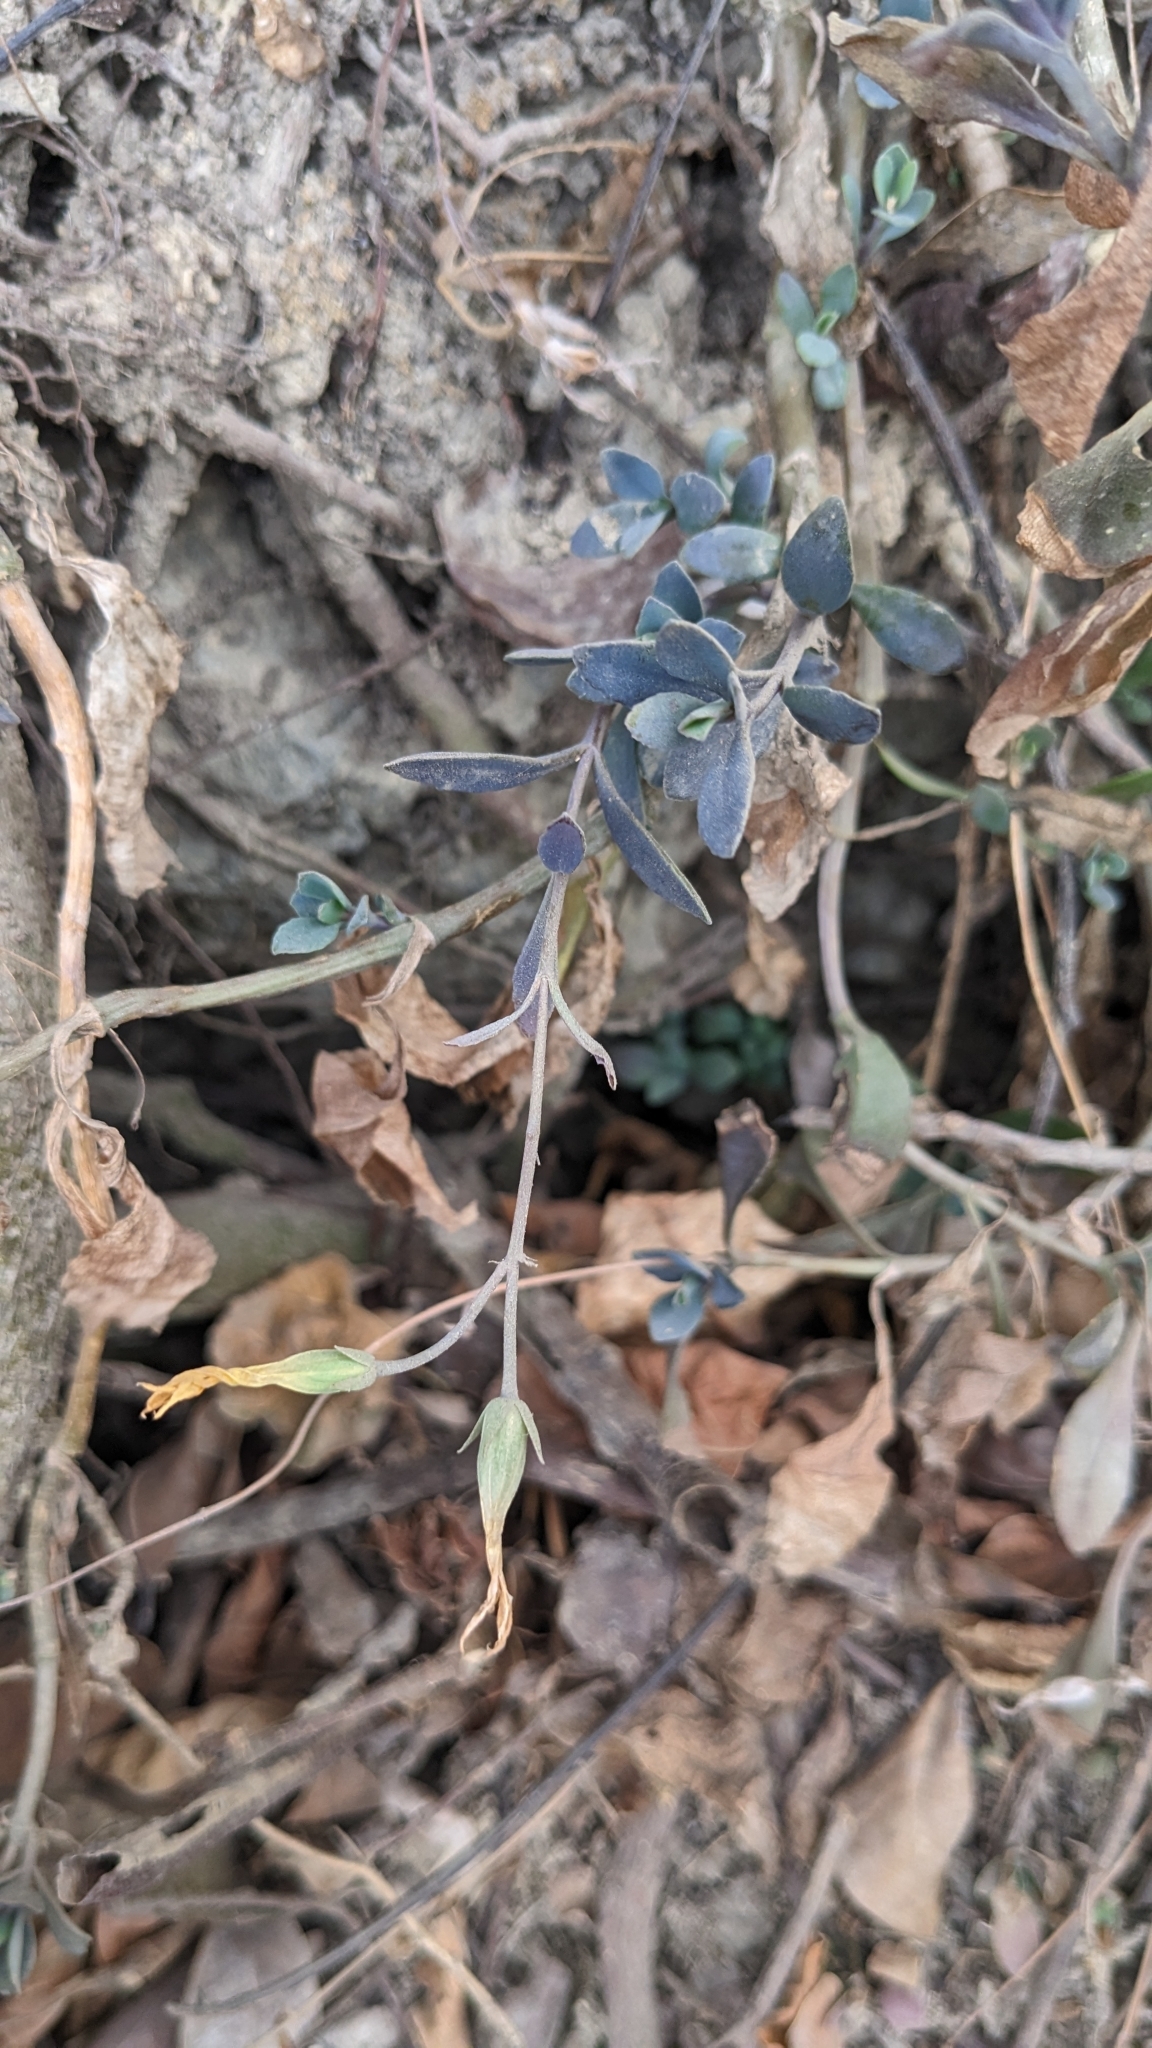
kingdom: Plantae
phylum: Tracheophyta
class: Magnoliopsida
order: Saxifragales
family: Crassulaceae
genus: Kalanchoe
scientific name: Kalanchoe integra
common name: Neverdie
